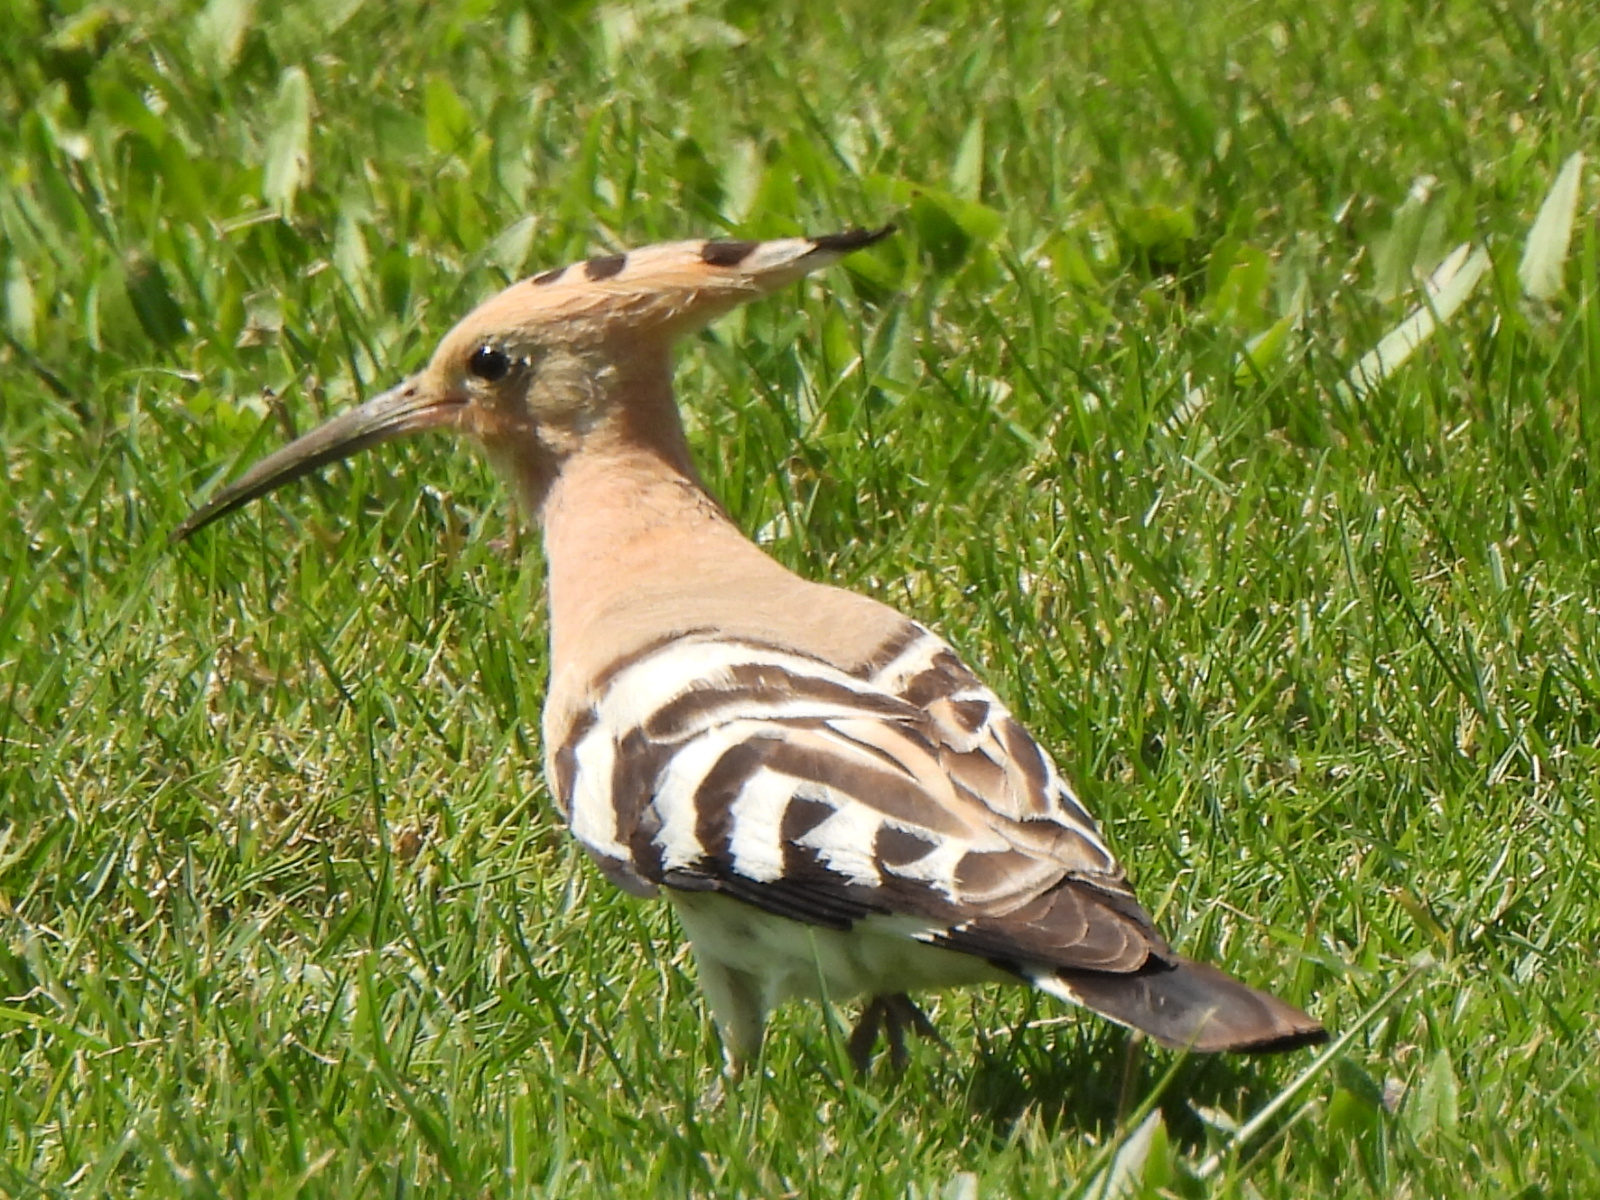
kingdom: Animalia
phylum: Chordata
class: Aves
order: Bucerotiformes
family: Upupidae
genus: Upupa
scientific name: Upupa epops
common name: Eurasian hoopoe
